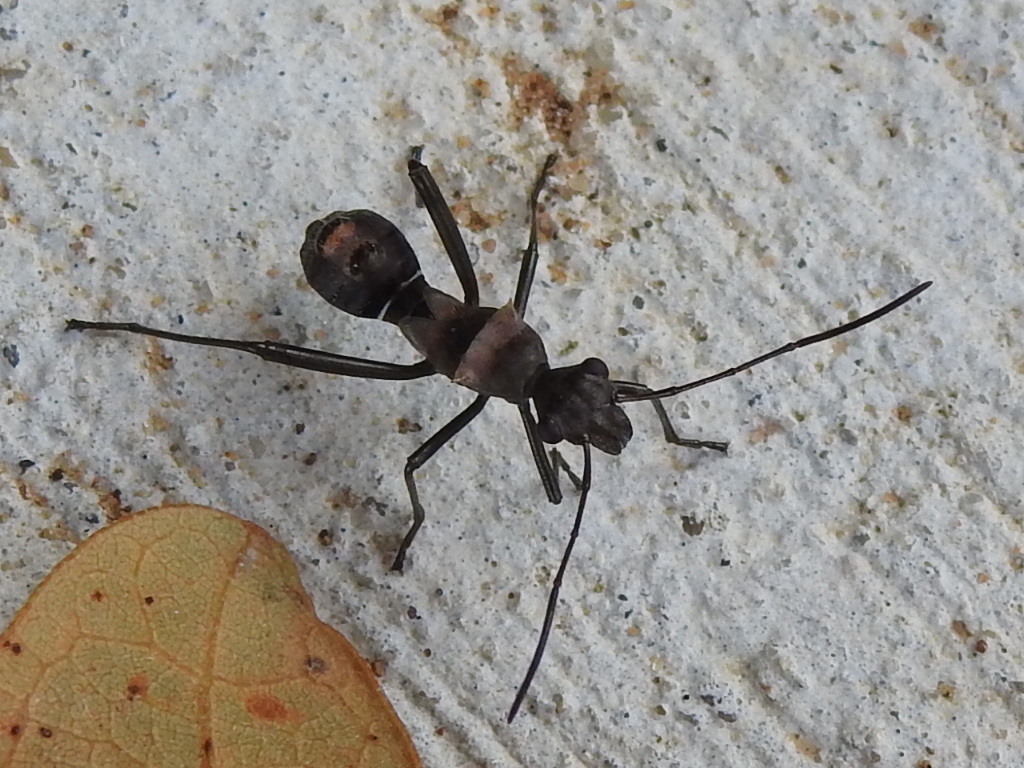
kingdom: Animalia
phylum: Arthropoda
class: Insecta
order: Hemiptera
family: Alydidae
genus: Hyalymenus
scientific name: Hyalymenus tarsatus
